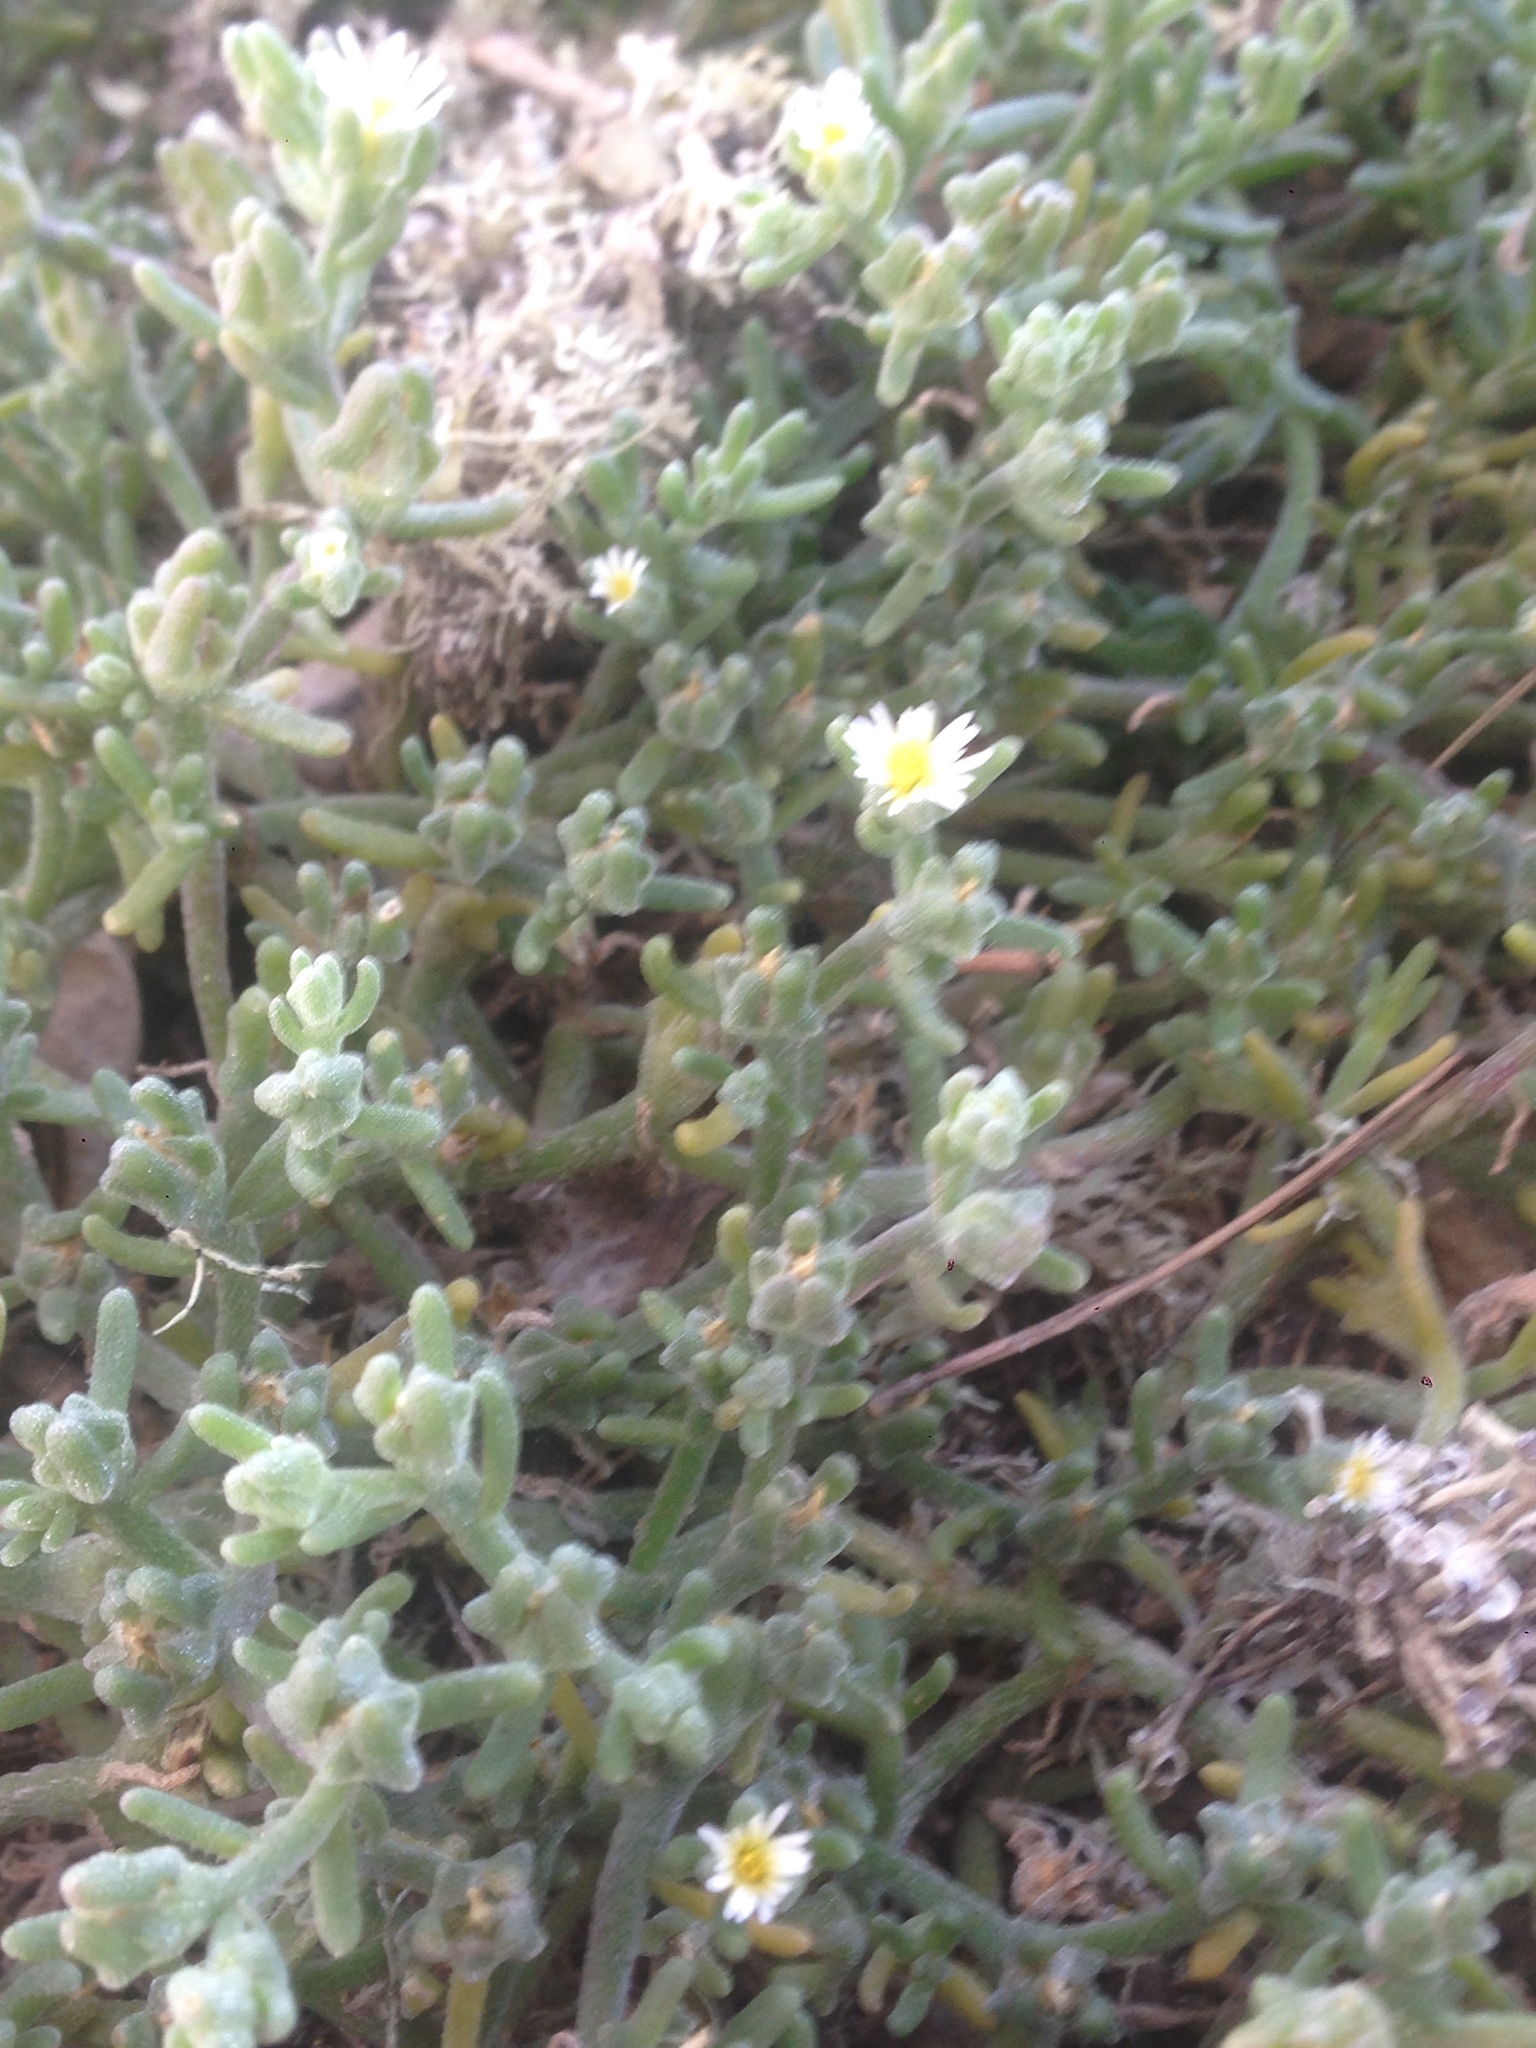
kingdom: Plantae
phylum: Tracheophyta
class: Magnoliopsida
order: Caryophyllales
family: Aizoaceae
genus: Mesembryanthemum
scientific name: Mesembryanthemum nodiflorum
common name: Slenderleaf iceplant
